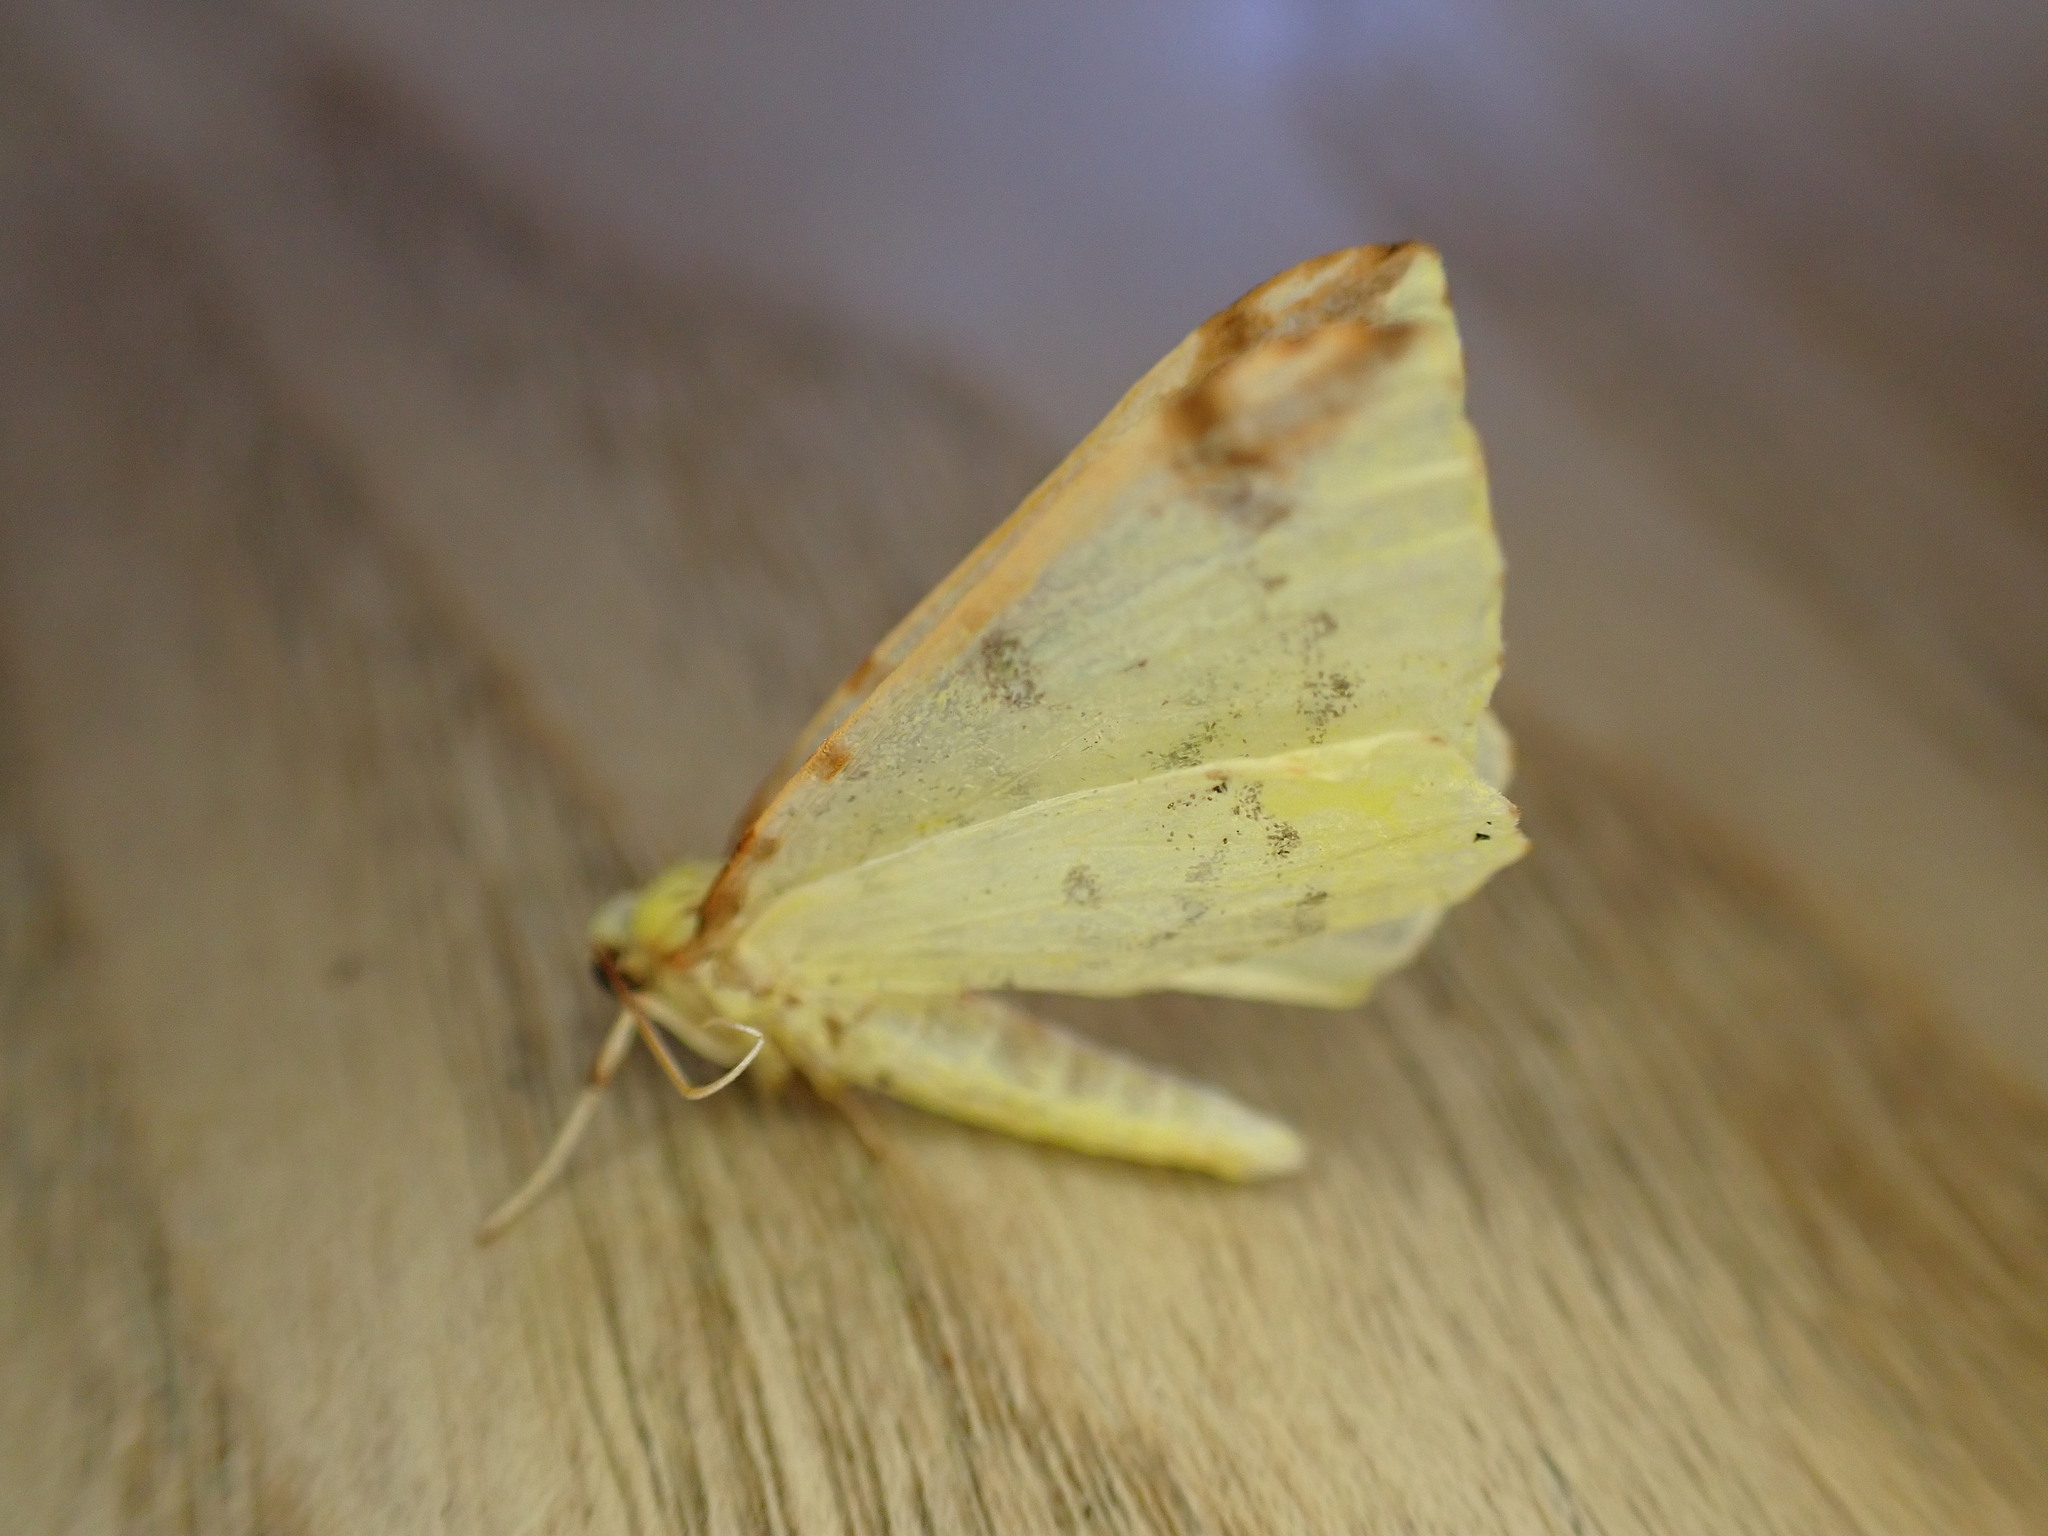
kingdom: Animalia
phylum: Arthropoda
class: Insecta
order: Lepidoptera
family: Geometridae
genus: Opisthograptis
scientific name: Opisthograptis luteolata
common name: Brimstone moth
